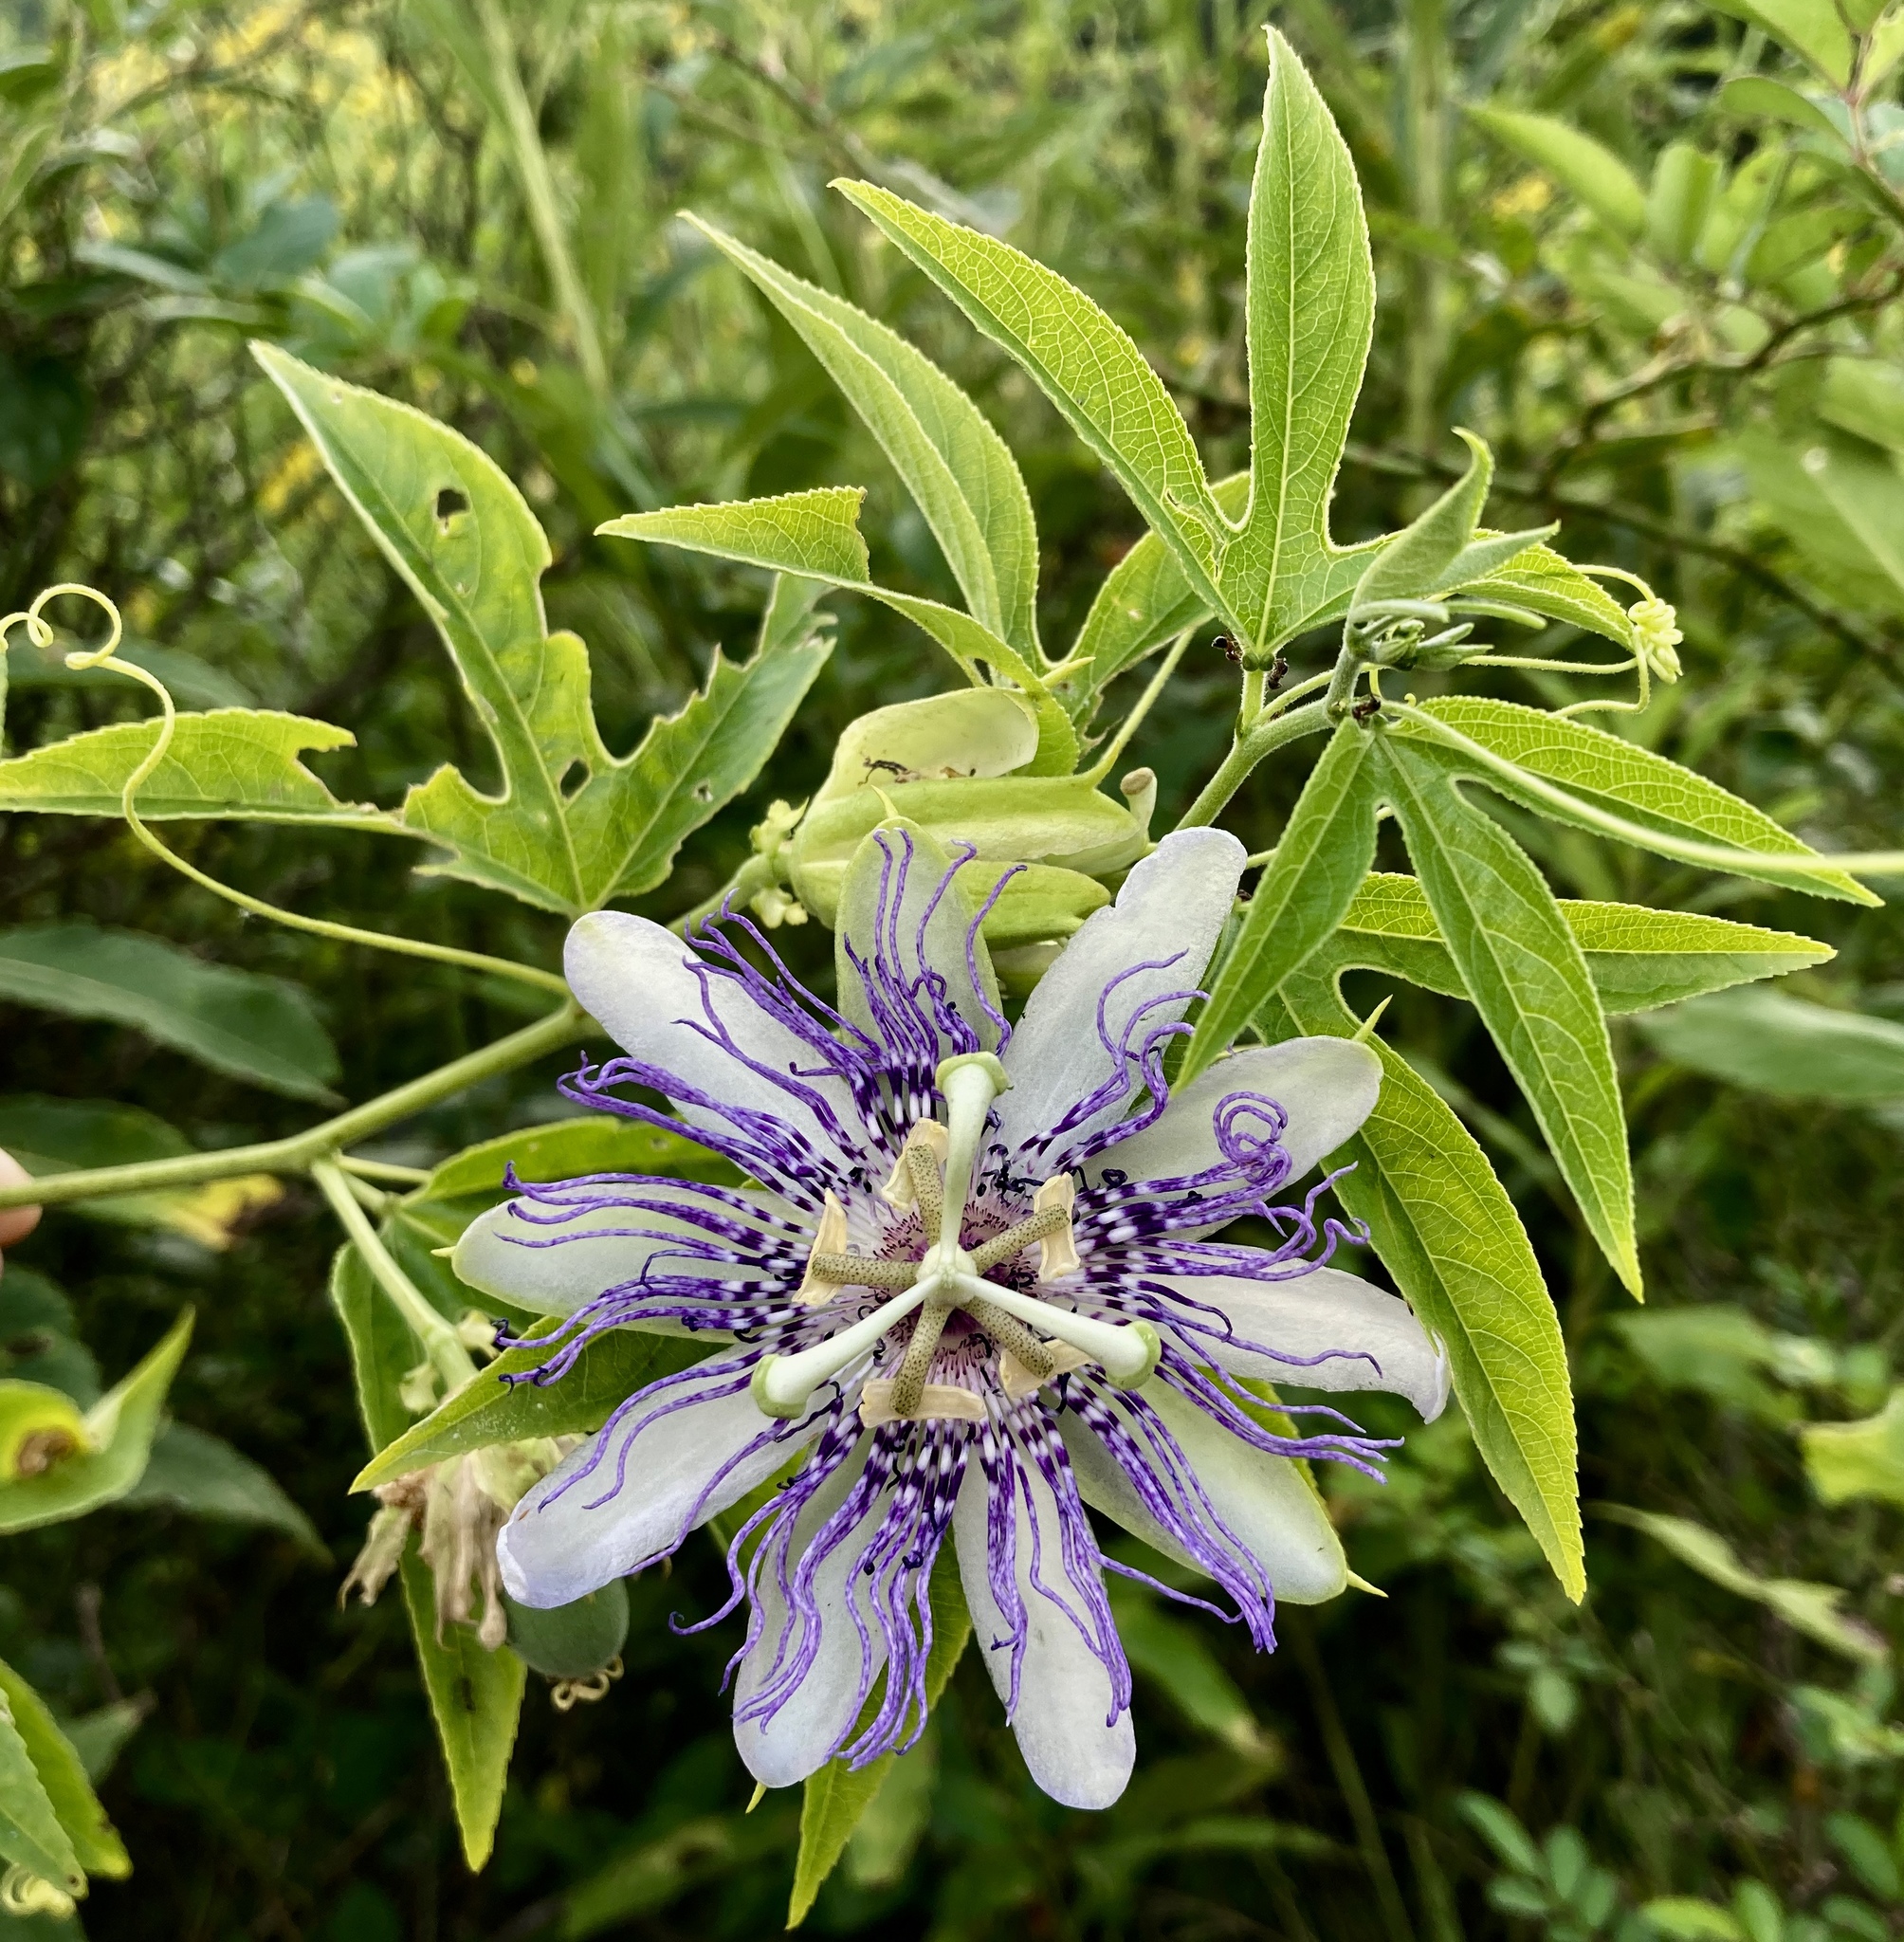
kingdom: Plantae
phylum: Tracheophyta
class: Magnoliopsida
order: Malpighiales
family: Passifloraceae
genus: Passiflora
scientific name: Passiflora incarnata
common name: Apricot-vine
